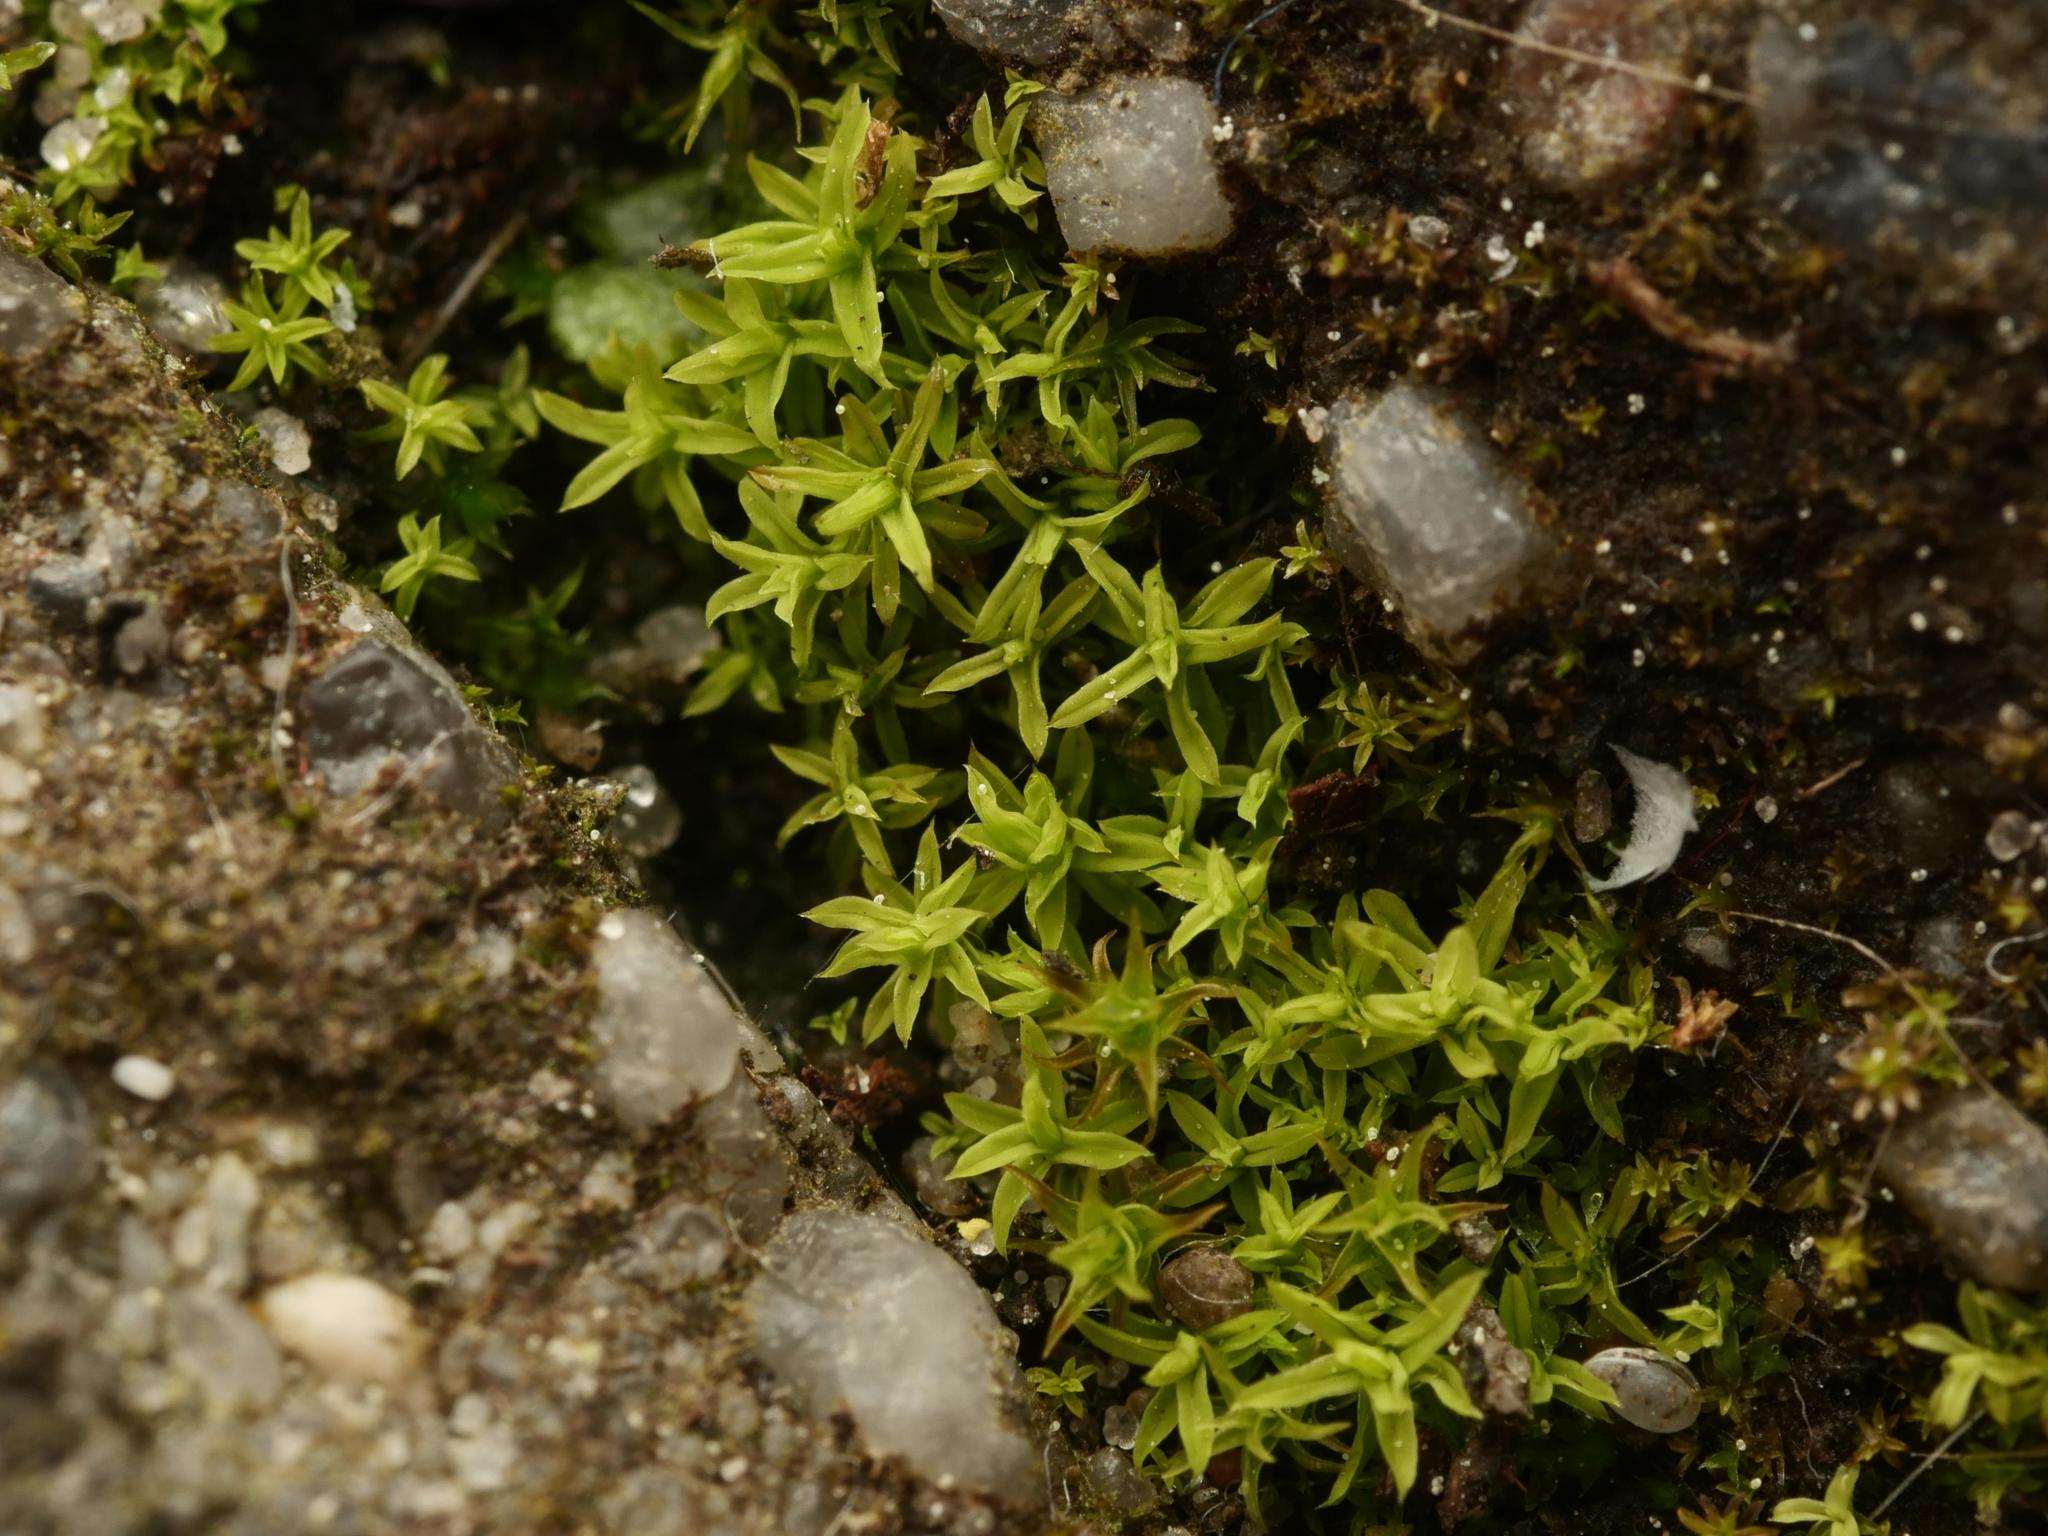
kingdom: Plantae
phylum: Bryophyta
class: Bryopsida
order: Pottiales
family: Pottiaceae
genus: Barbula
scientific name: Barbula unguiculata
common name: Prickly beard moss
